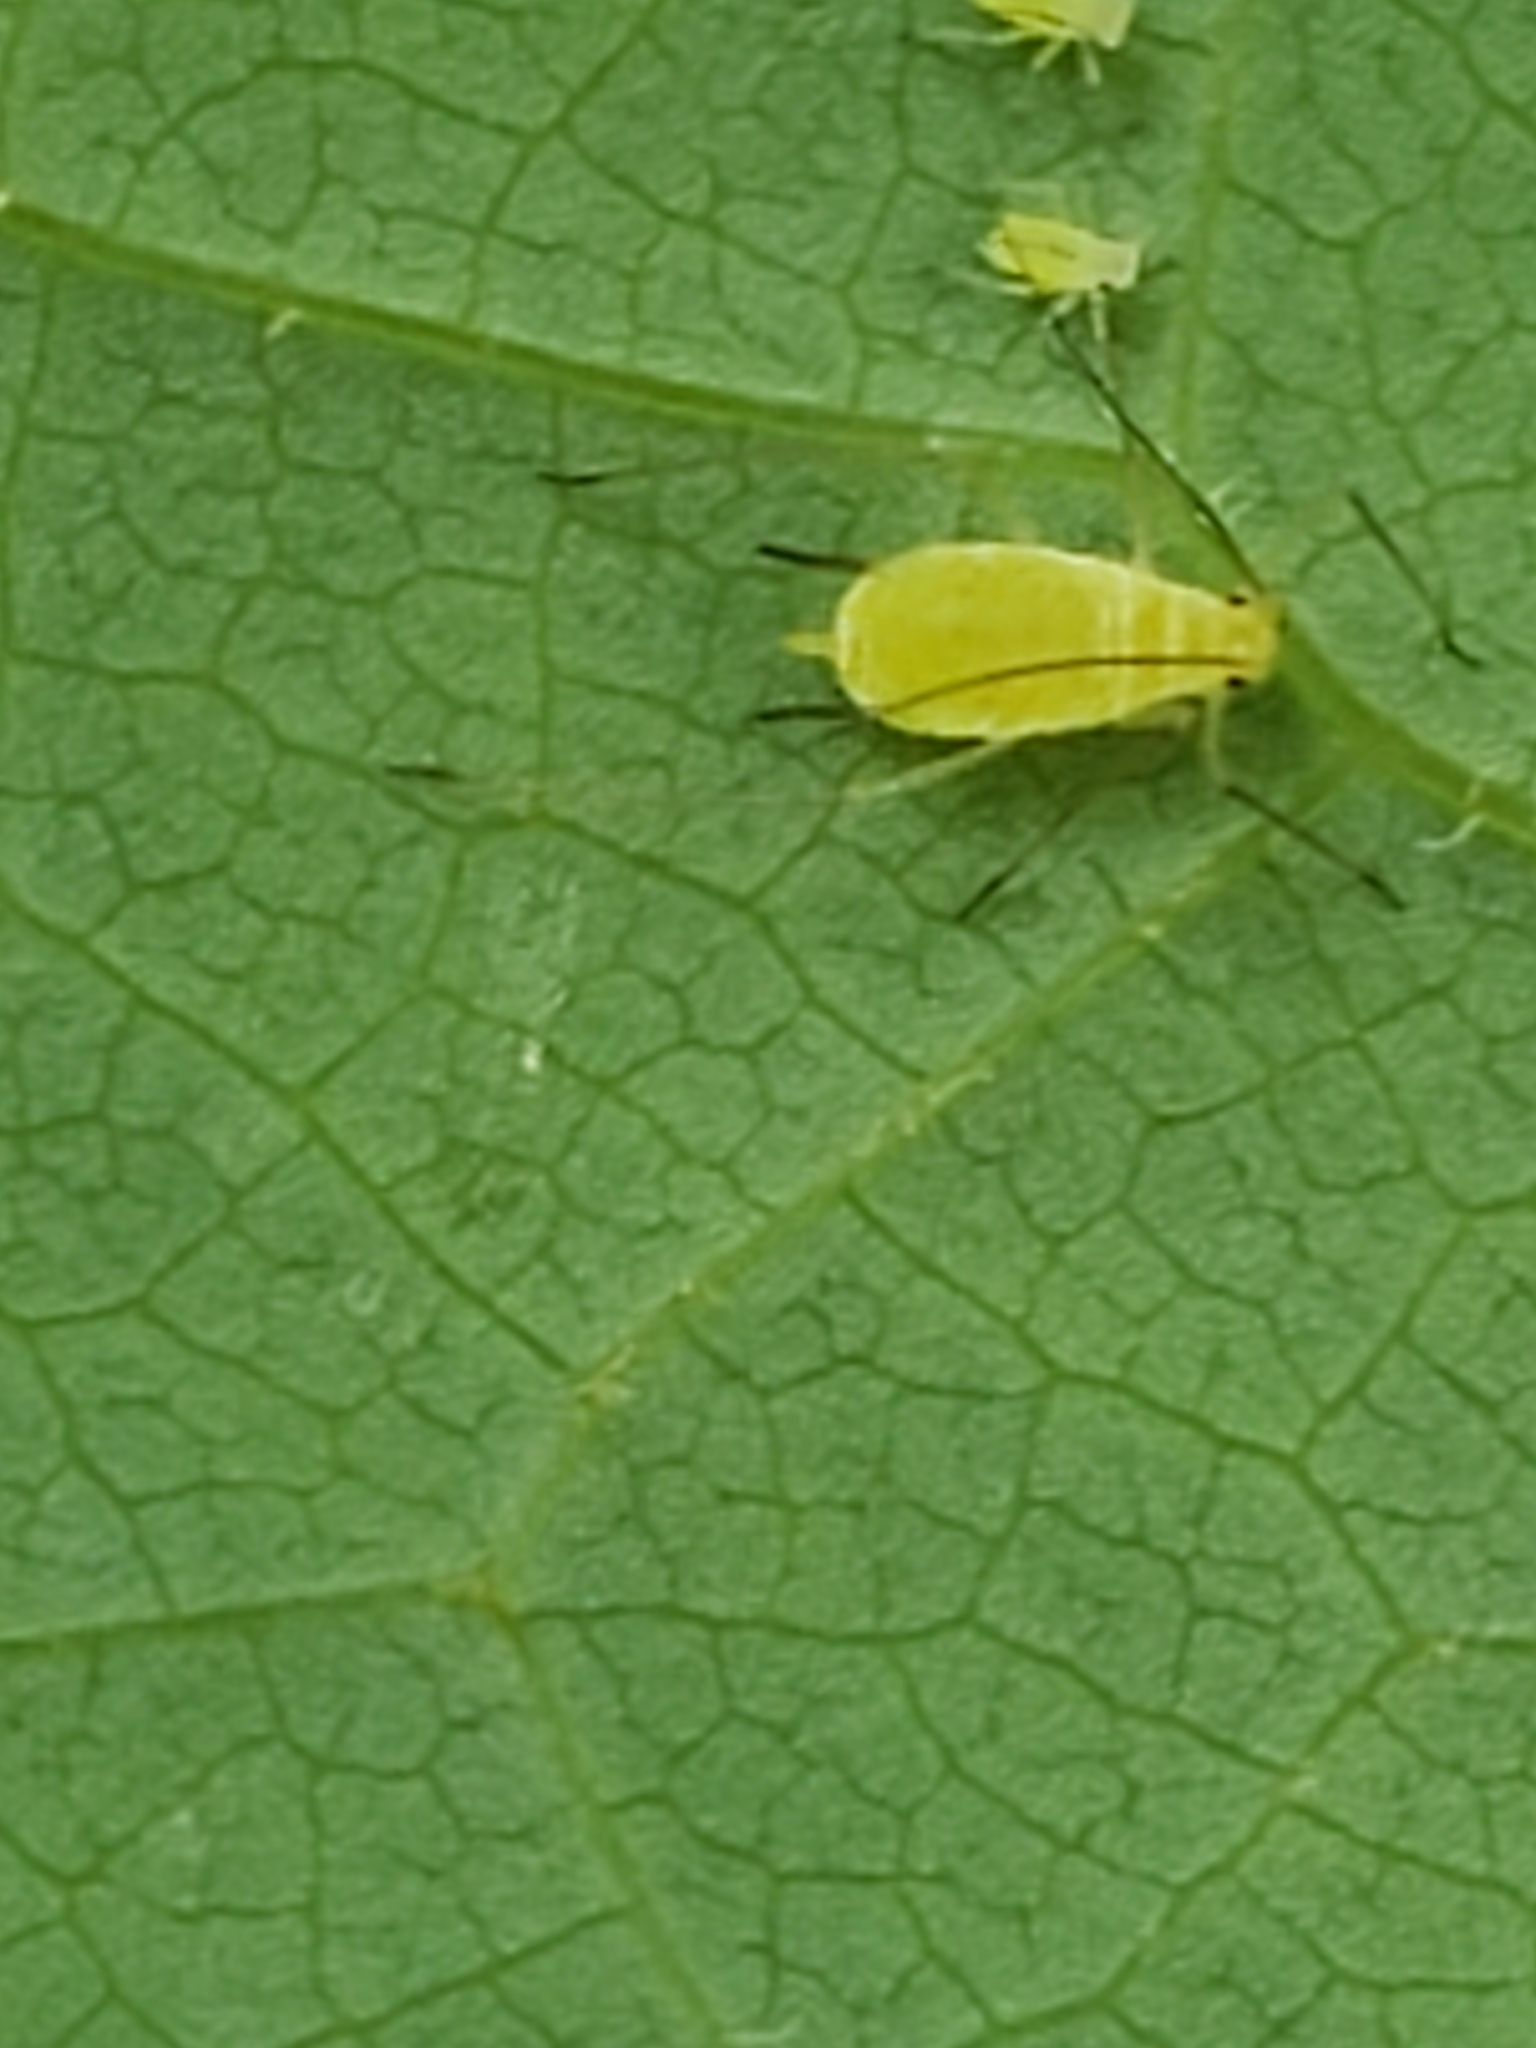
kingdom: Animalia
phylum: Arthropoda
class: Insecta
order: Hemiptera
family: Aphididae
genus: Illinoia
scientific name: Illinoia liriodendri
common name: Tuliptree aphid
